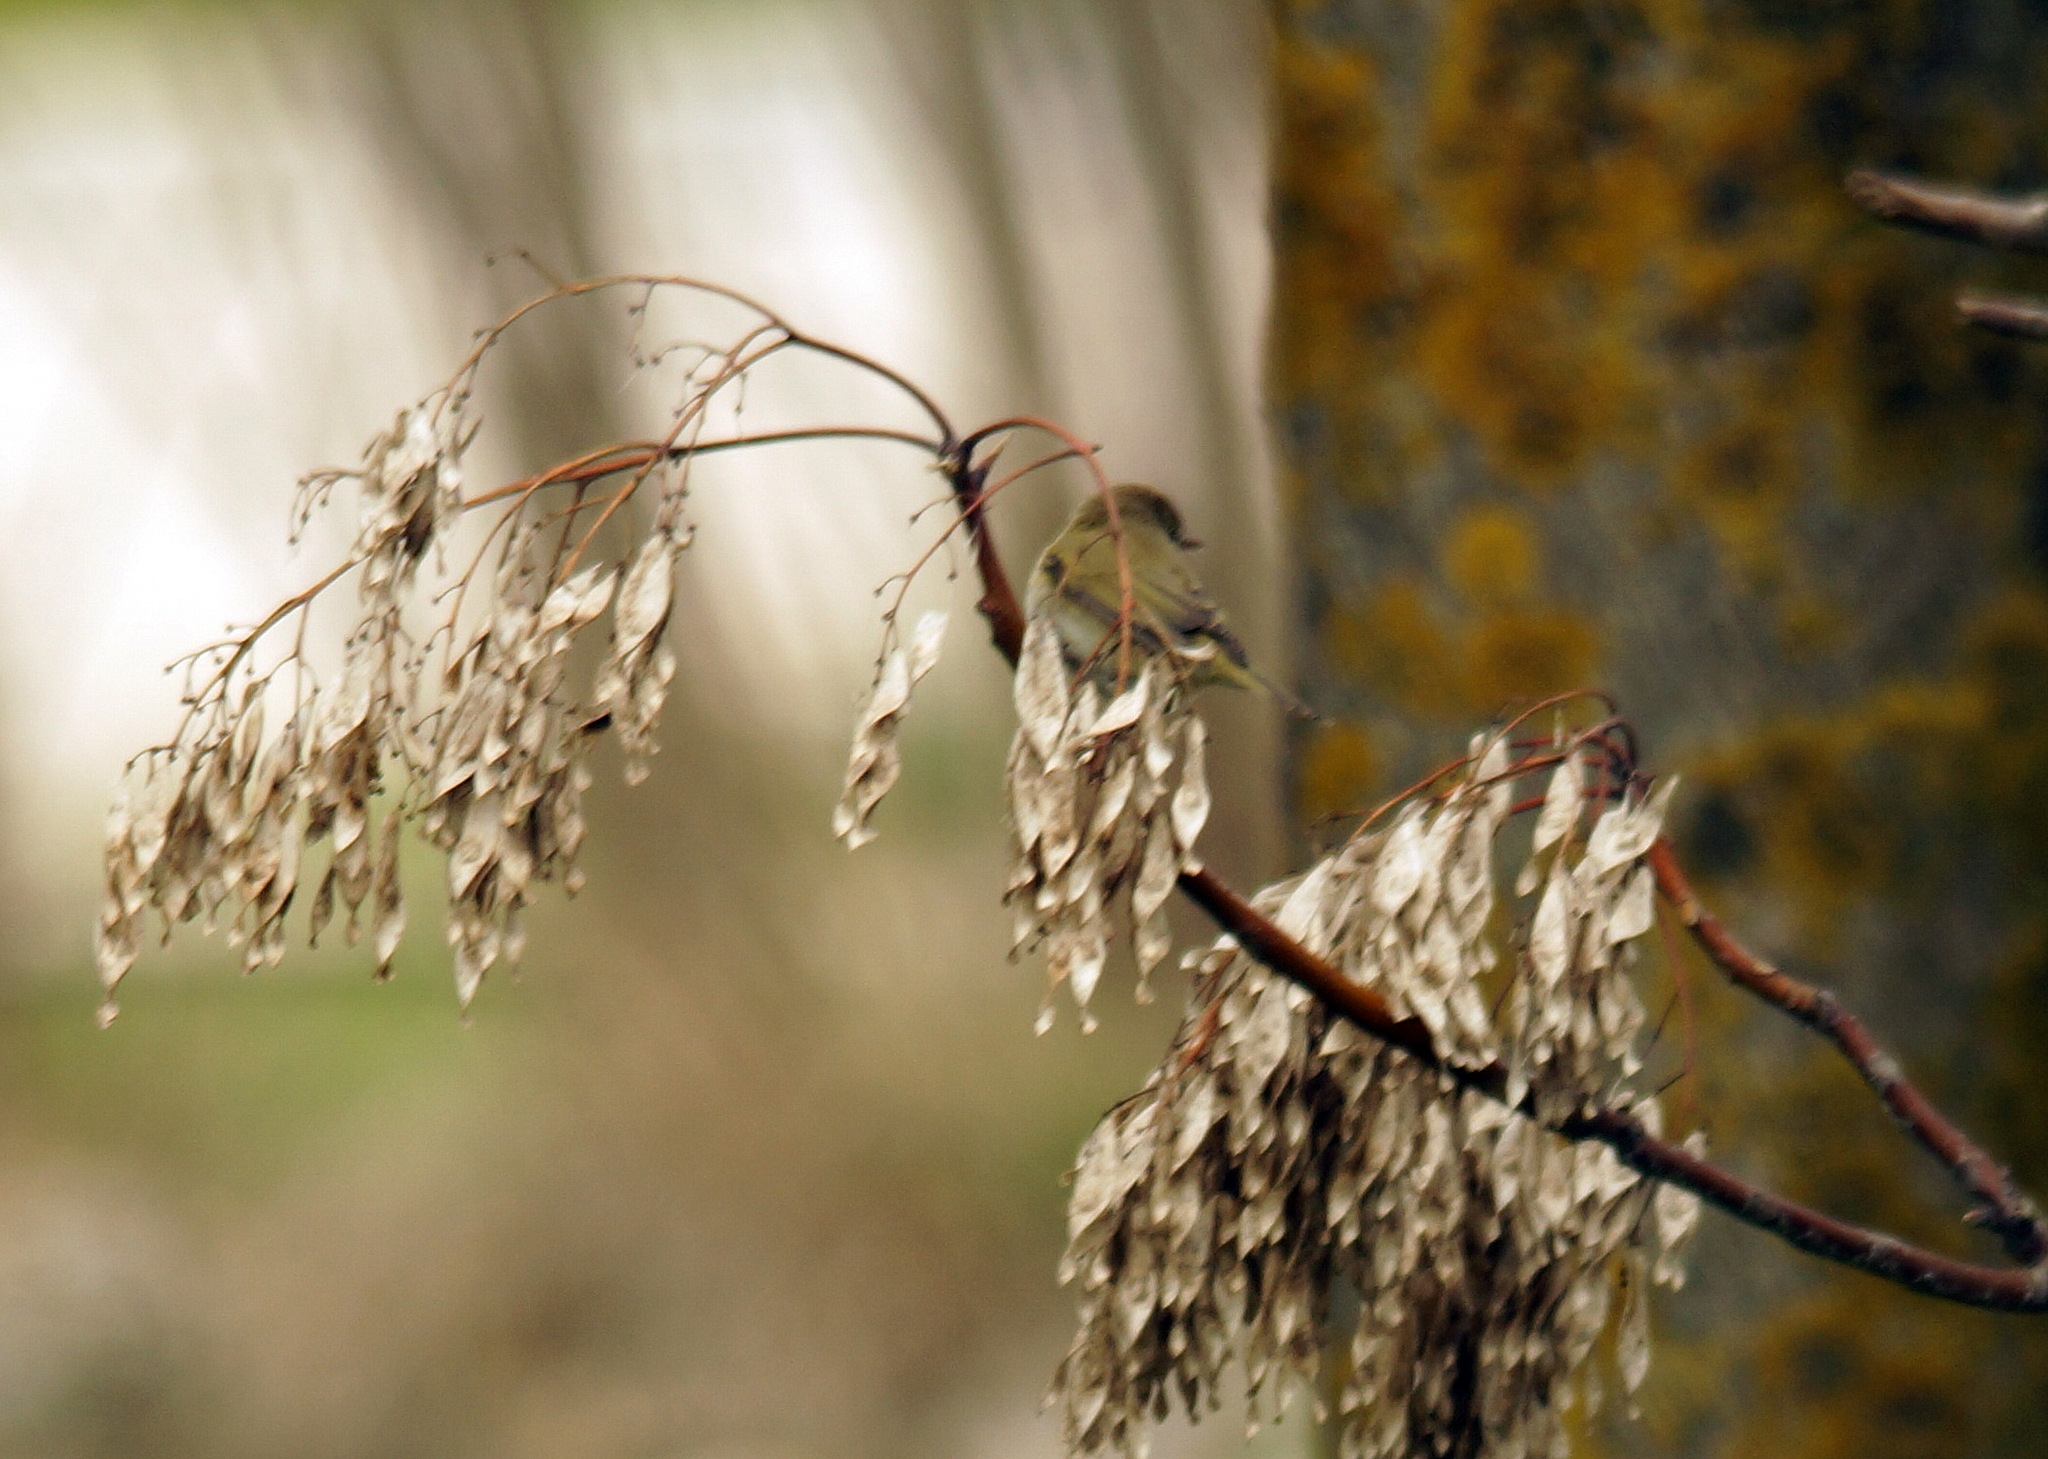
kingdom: Animalia
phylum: Chordata
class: Aves
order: Passeriformes
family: Phylloscopidae
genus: Phylloscopus
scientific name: Phylloscopus collybita
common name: Common chiffchaff
